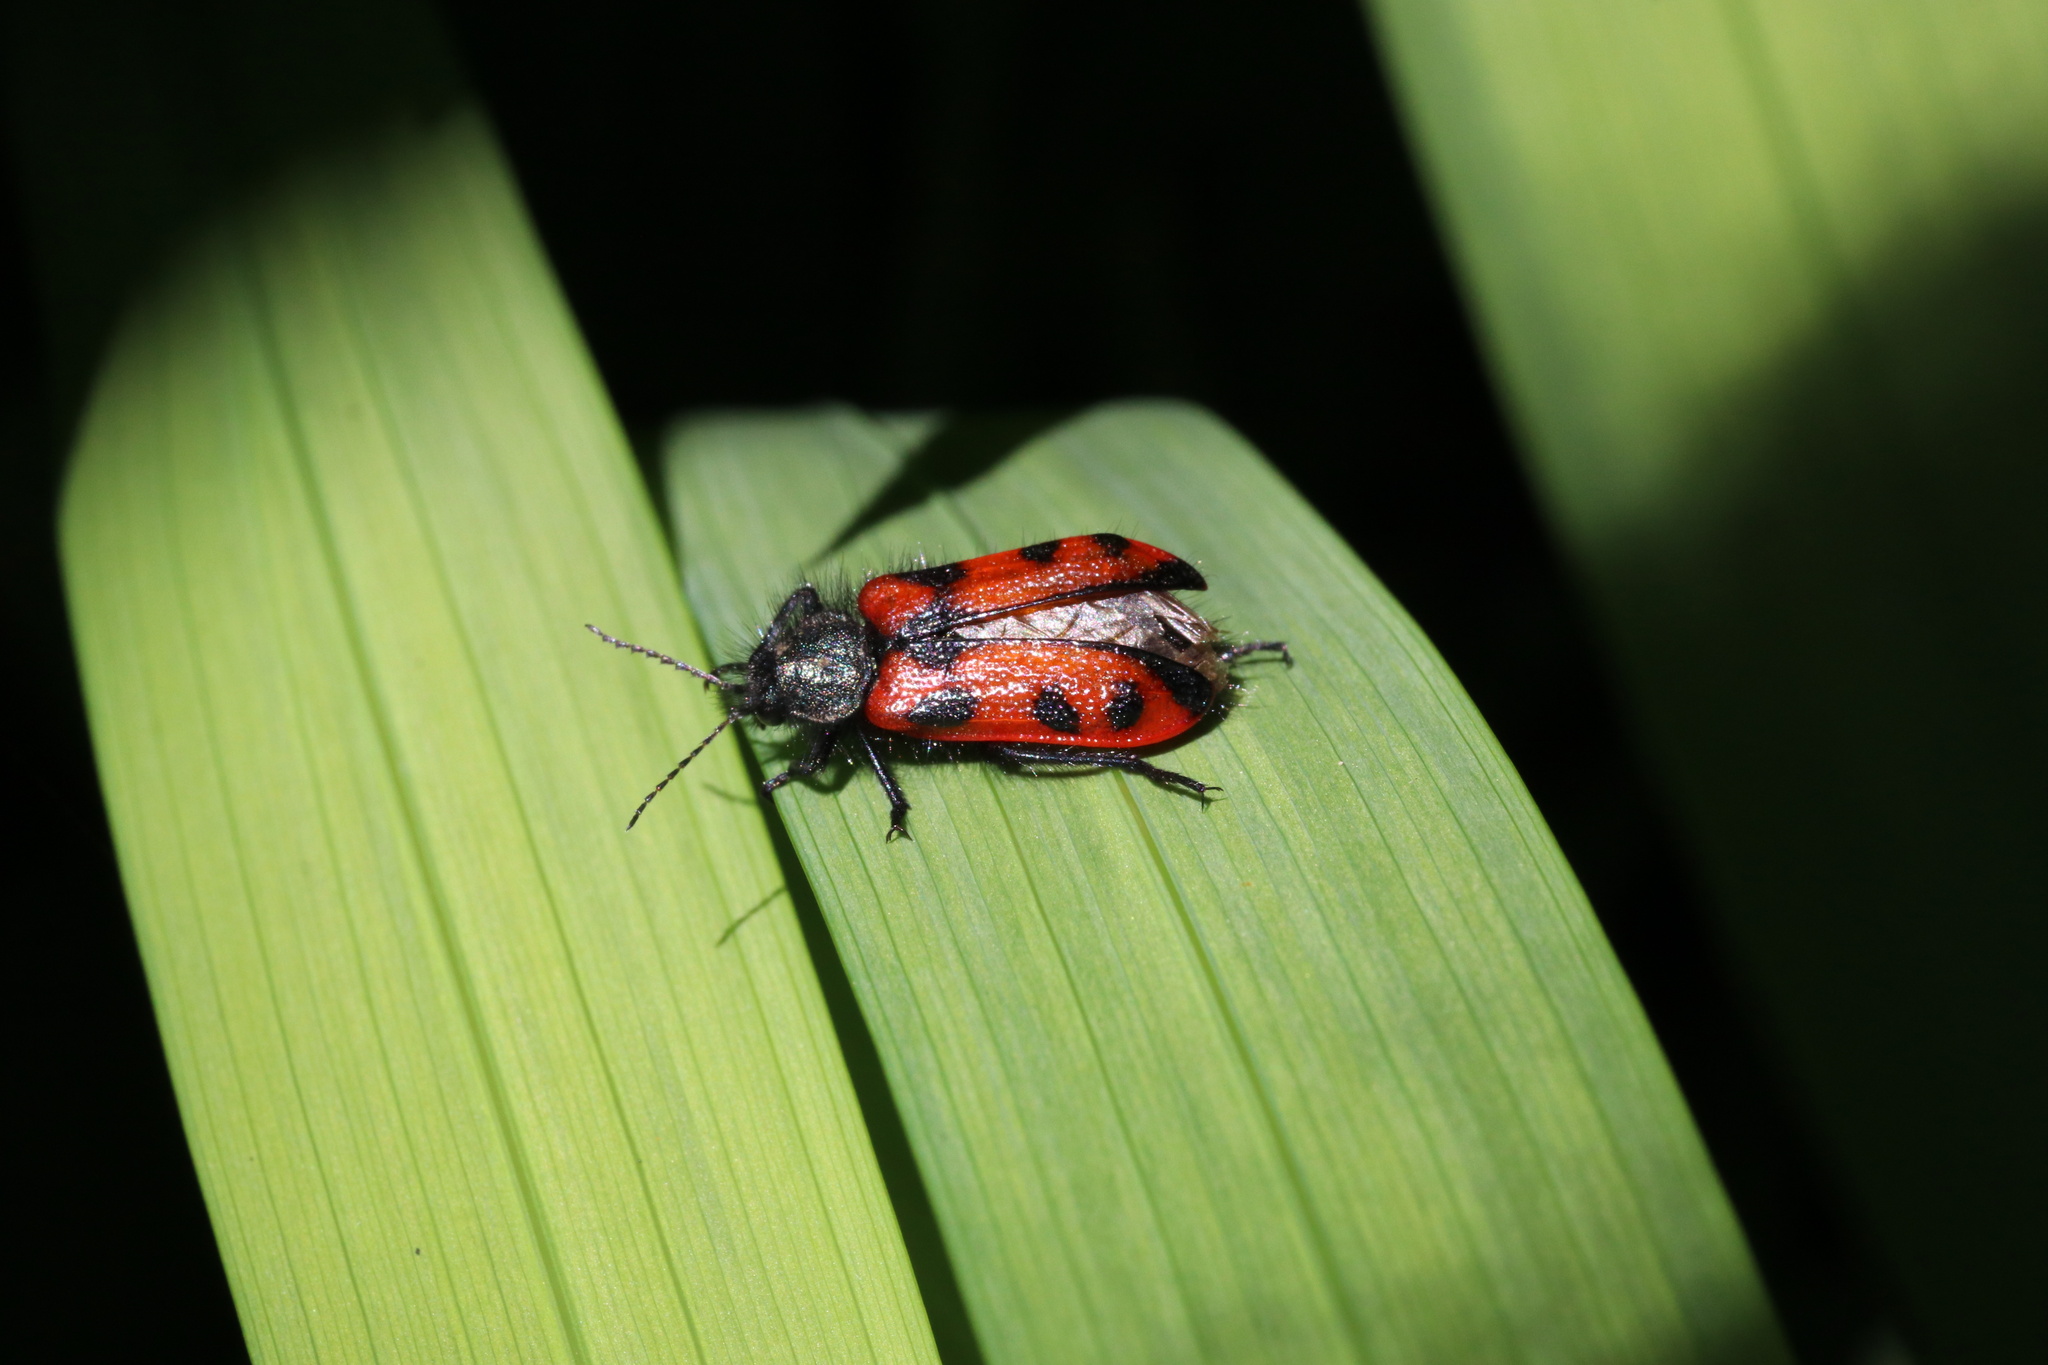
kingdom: Animalia
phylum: Arthropoda
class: Insecta
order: Coleoptera
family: Melyridae
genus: Astylus
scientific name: Astylus
